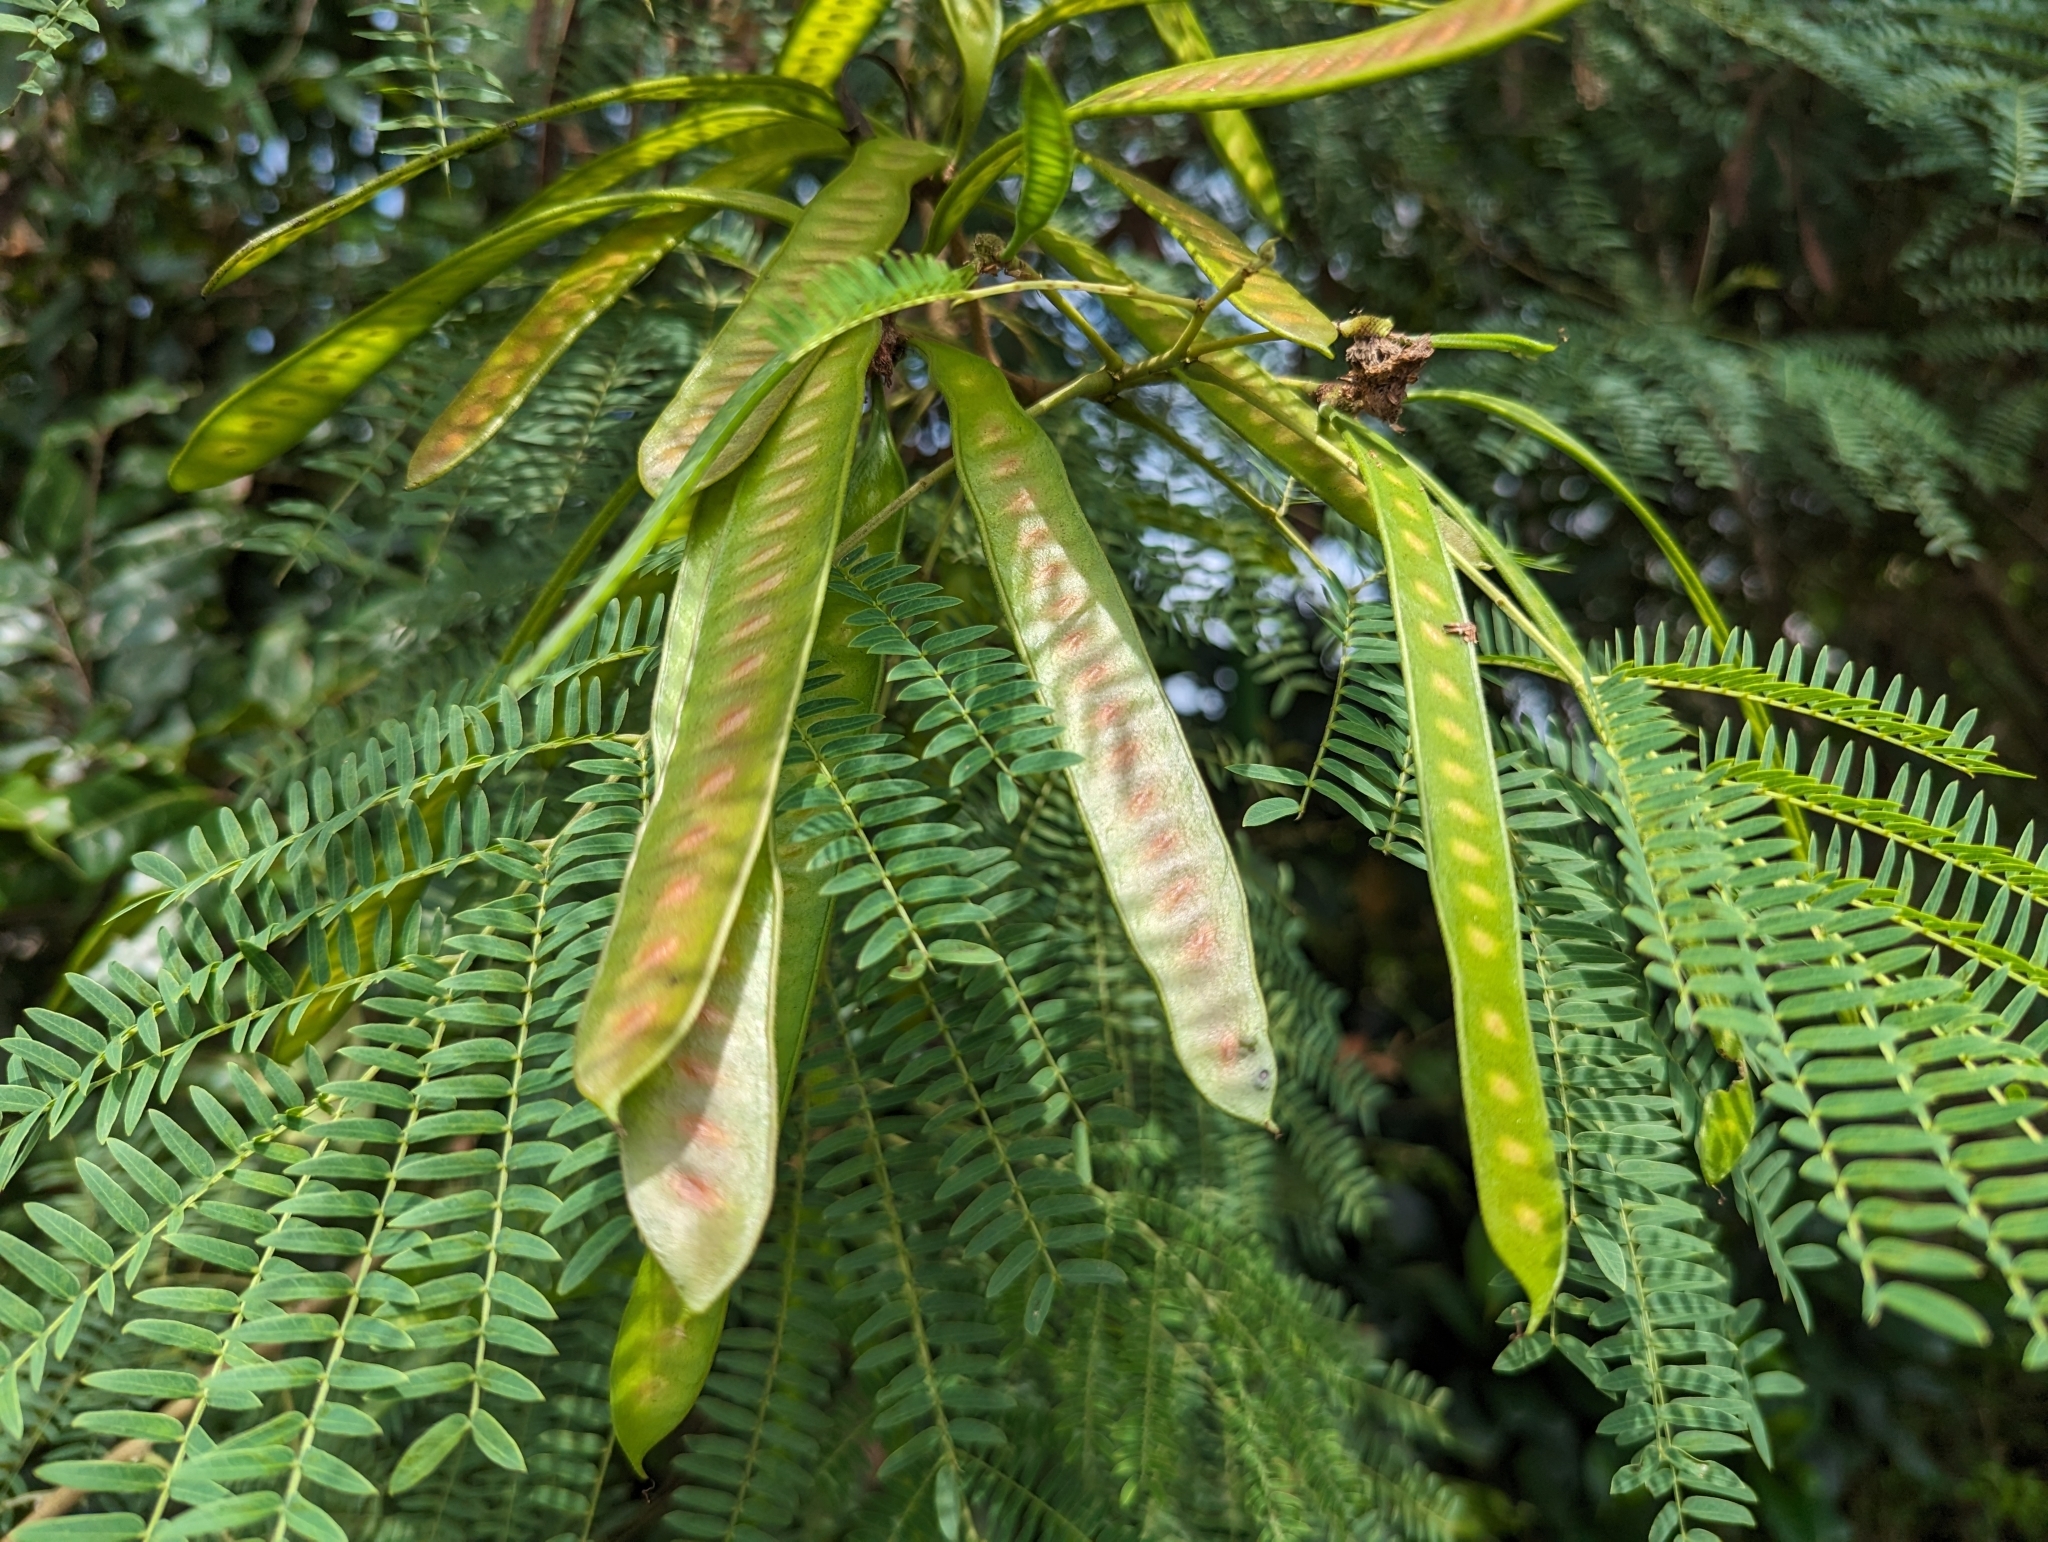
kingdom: Plantae
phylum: Tracheophyta
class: Magnoliopsida
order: Fabales
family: Fabaceae
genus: Leucaena
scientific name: Leucaena leucocephala
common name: White leadtree
